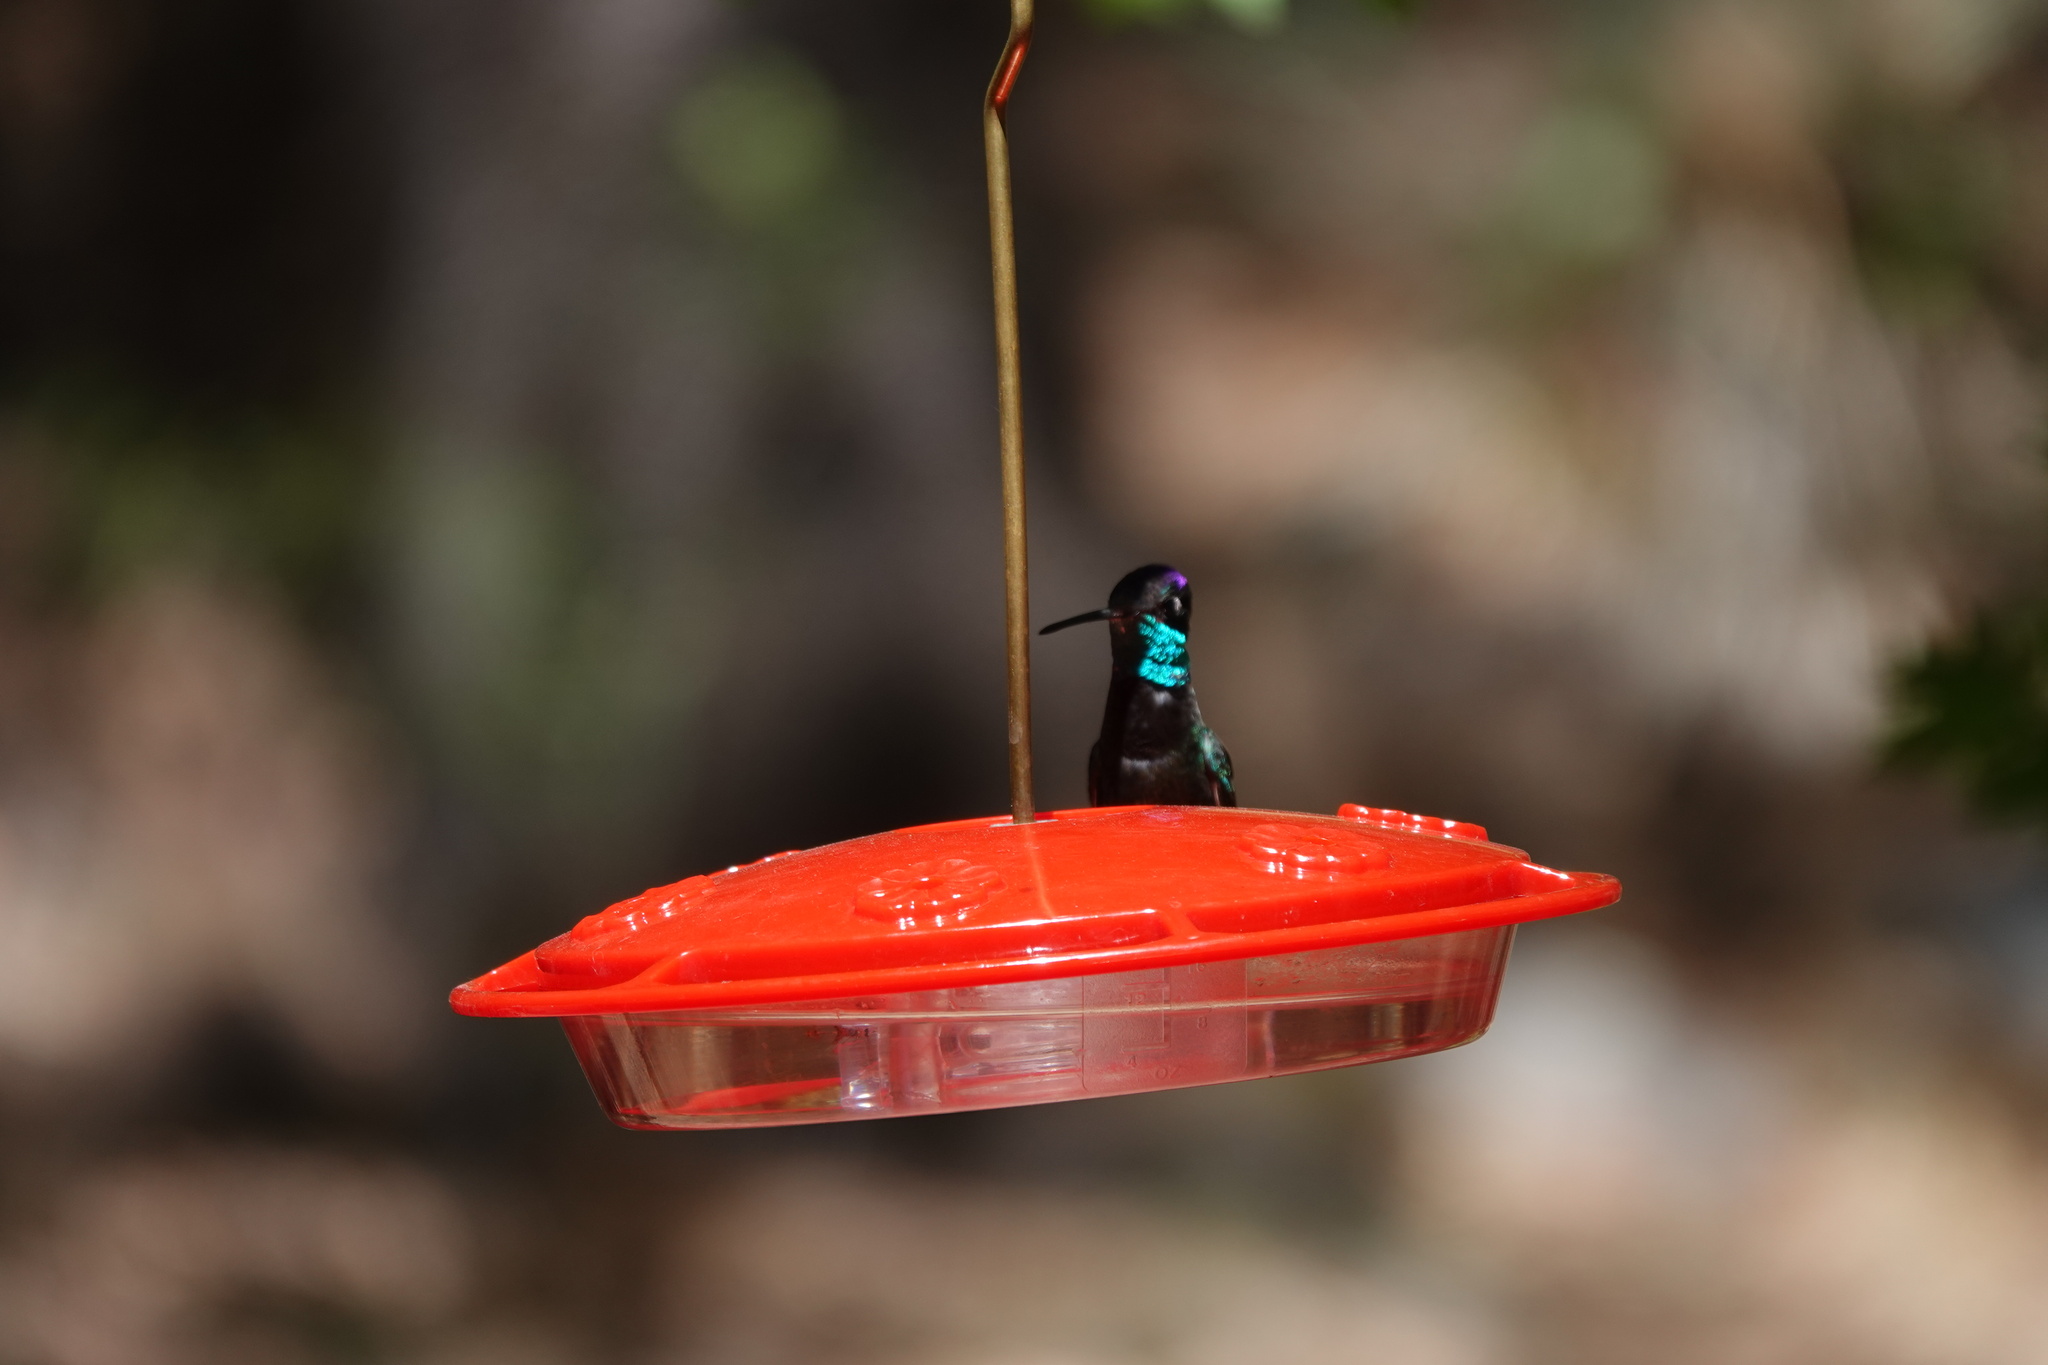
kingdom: Animalia
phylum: Chordata
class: Aves
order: Apodiformes
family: Trochilidae
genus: Eugenes
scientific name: Eugenes fulgens
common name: Magnificent hummingbird
